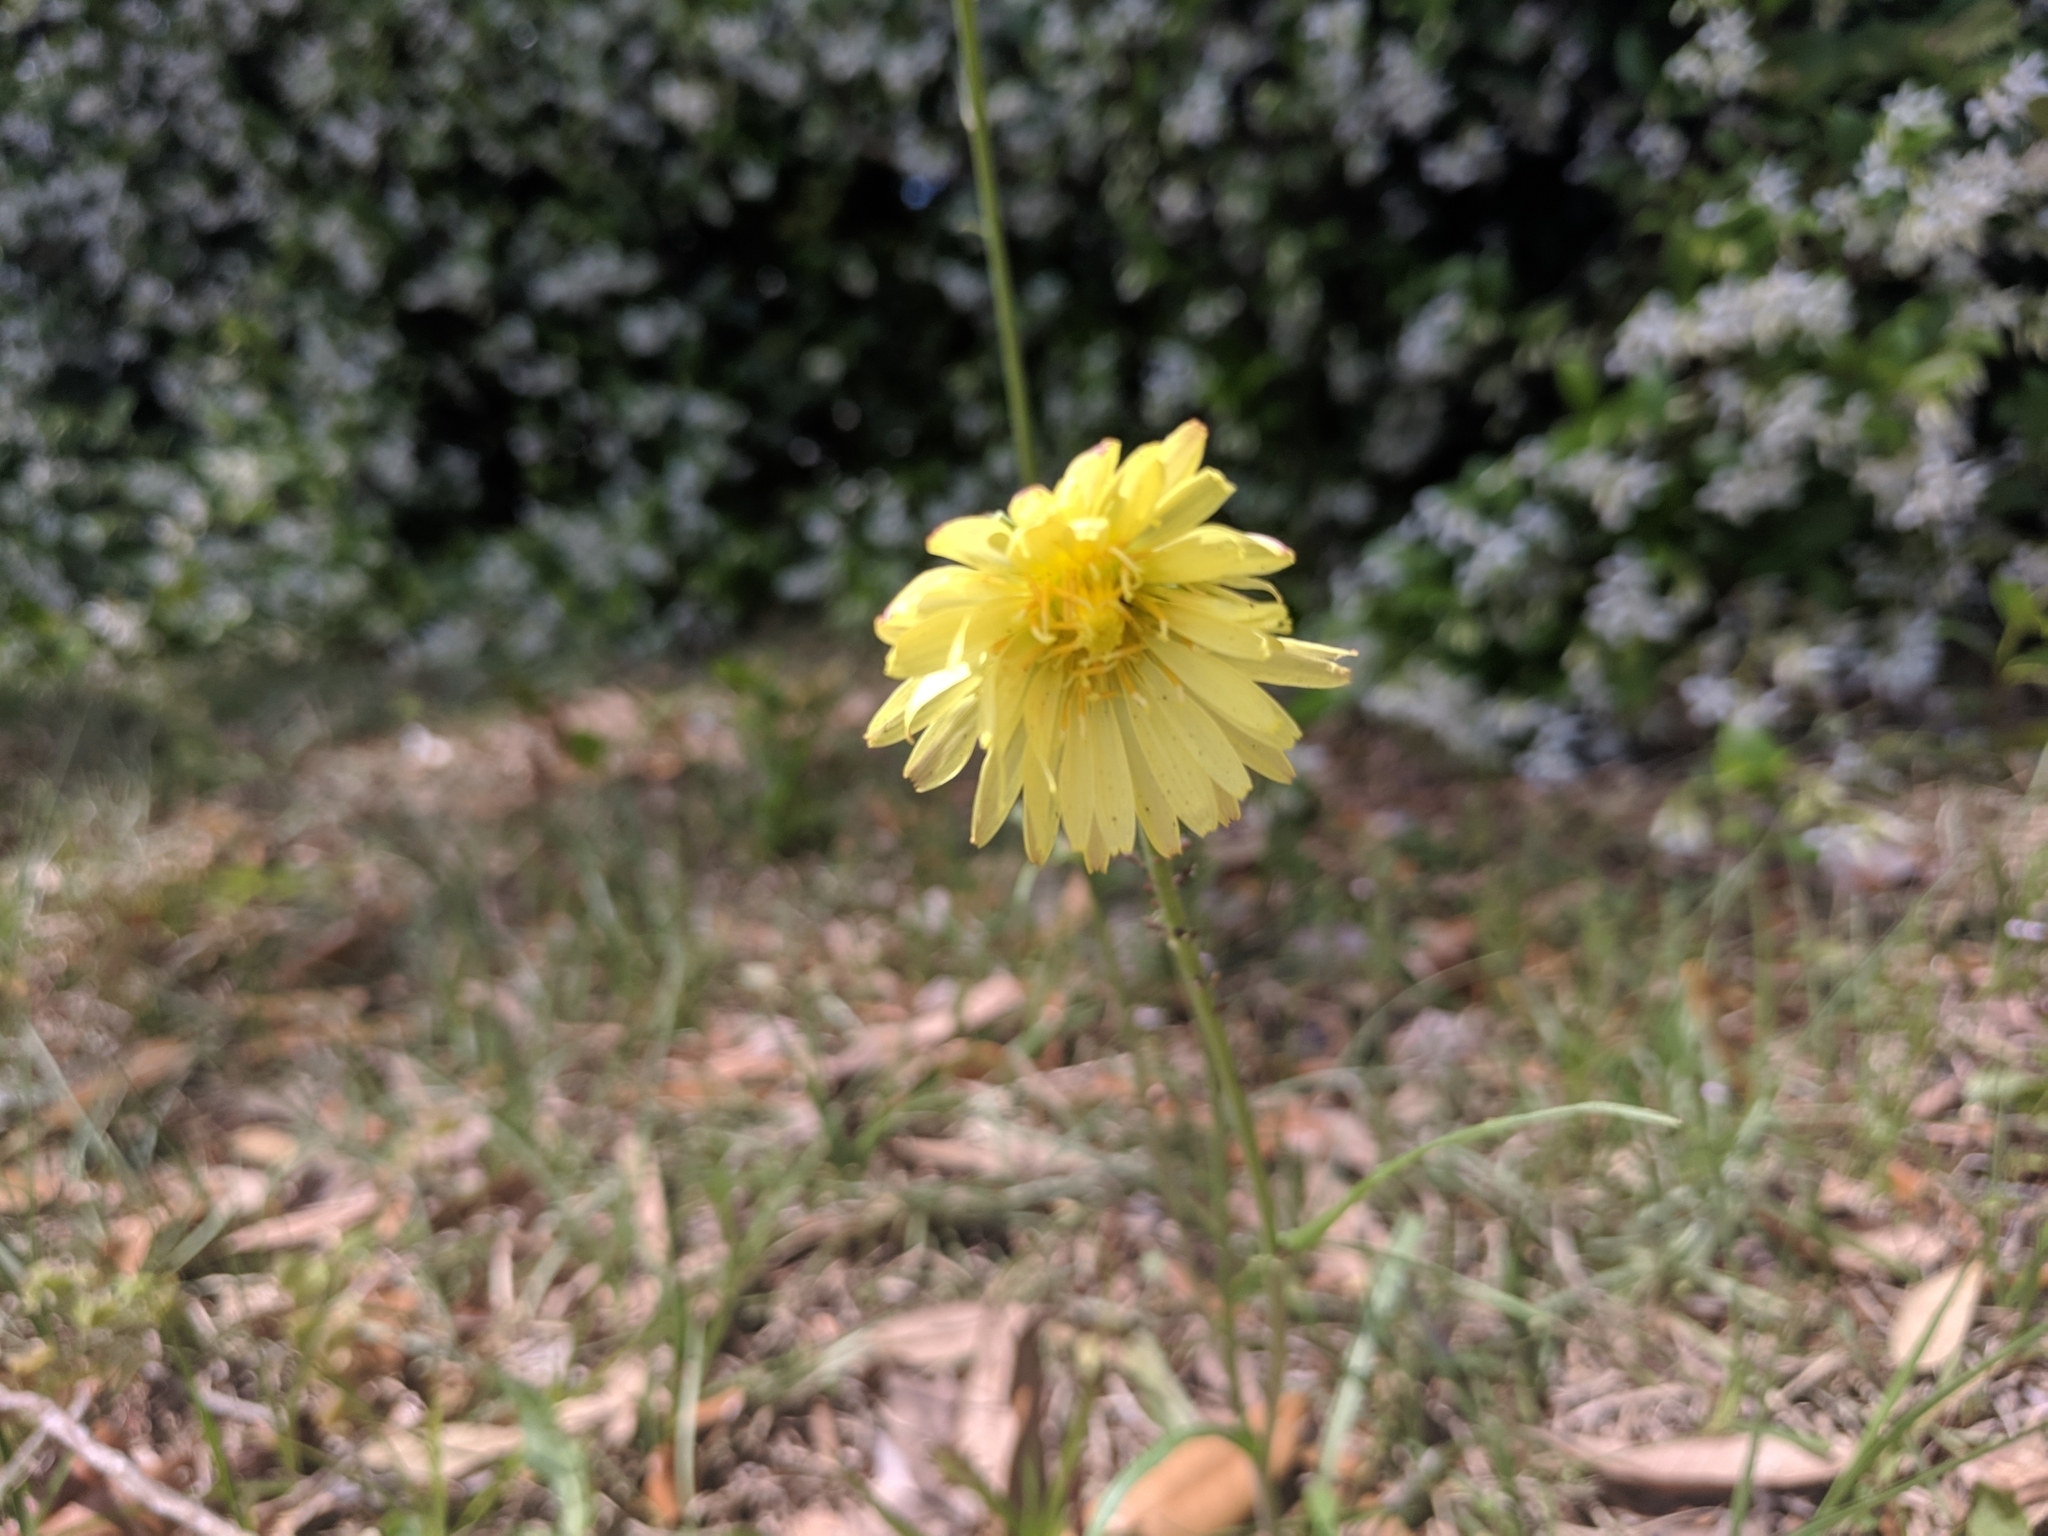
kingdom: Plantae
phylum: Tracheophyta
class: Magnoliopsida
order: Asterales
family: Asteraceae
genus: Pyrrhopappus
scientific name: Pyrrhopappus carolinianus
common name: Carolina desert-chicory
